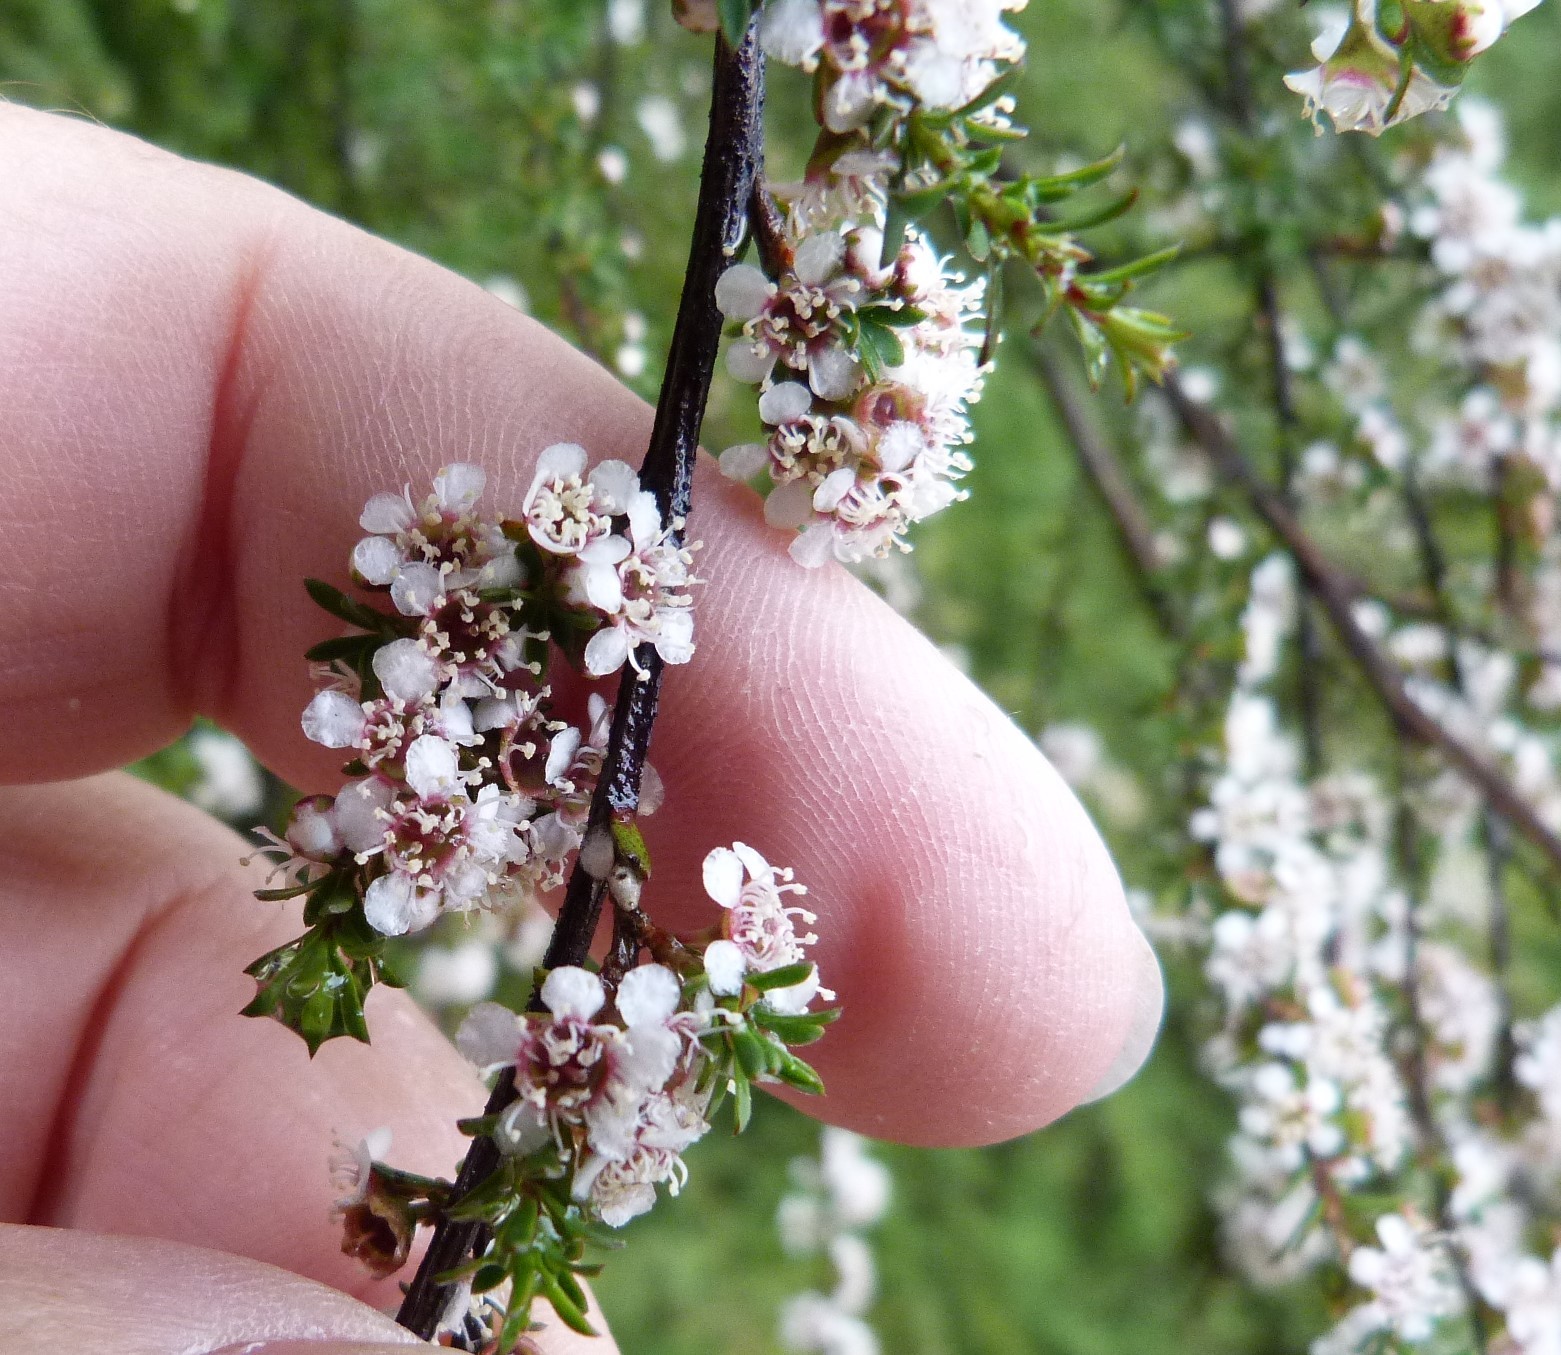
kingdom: Plantae
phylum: Tracheophyta
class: Magnoliopsida
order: Myrtales
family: Myrtaceae
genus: Kunzea
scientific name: Kunzea tenuicaulis
